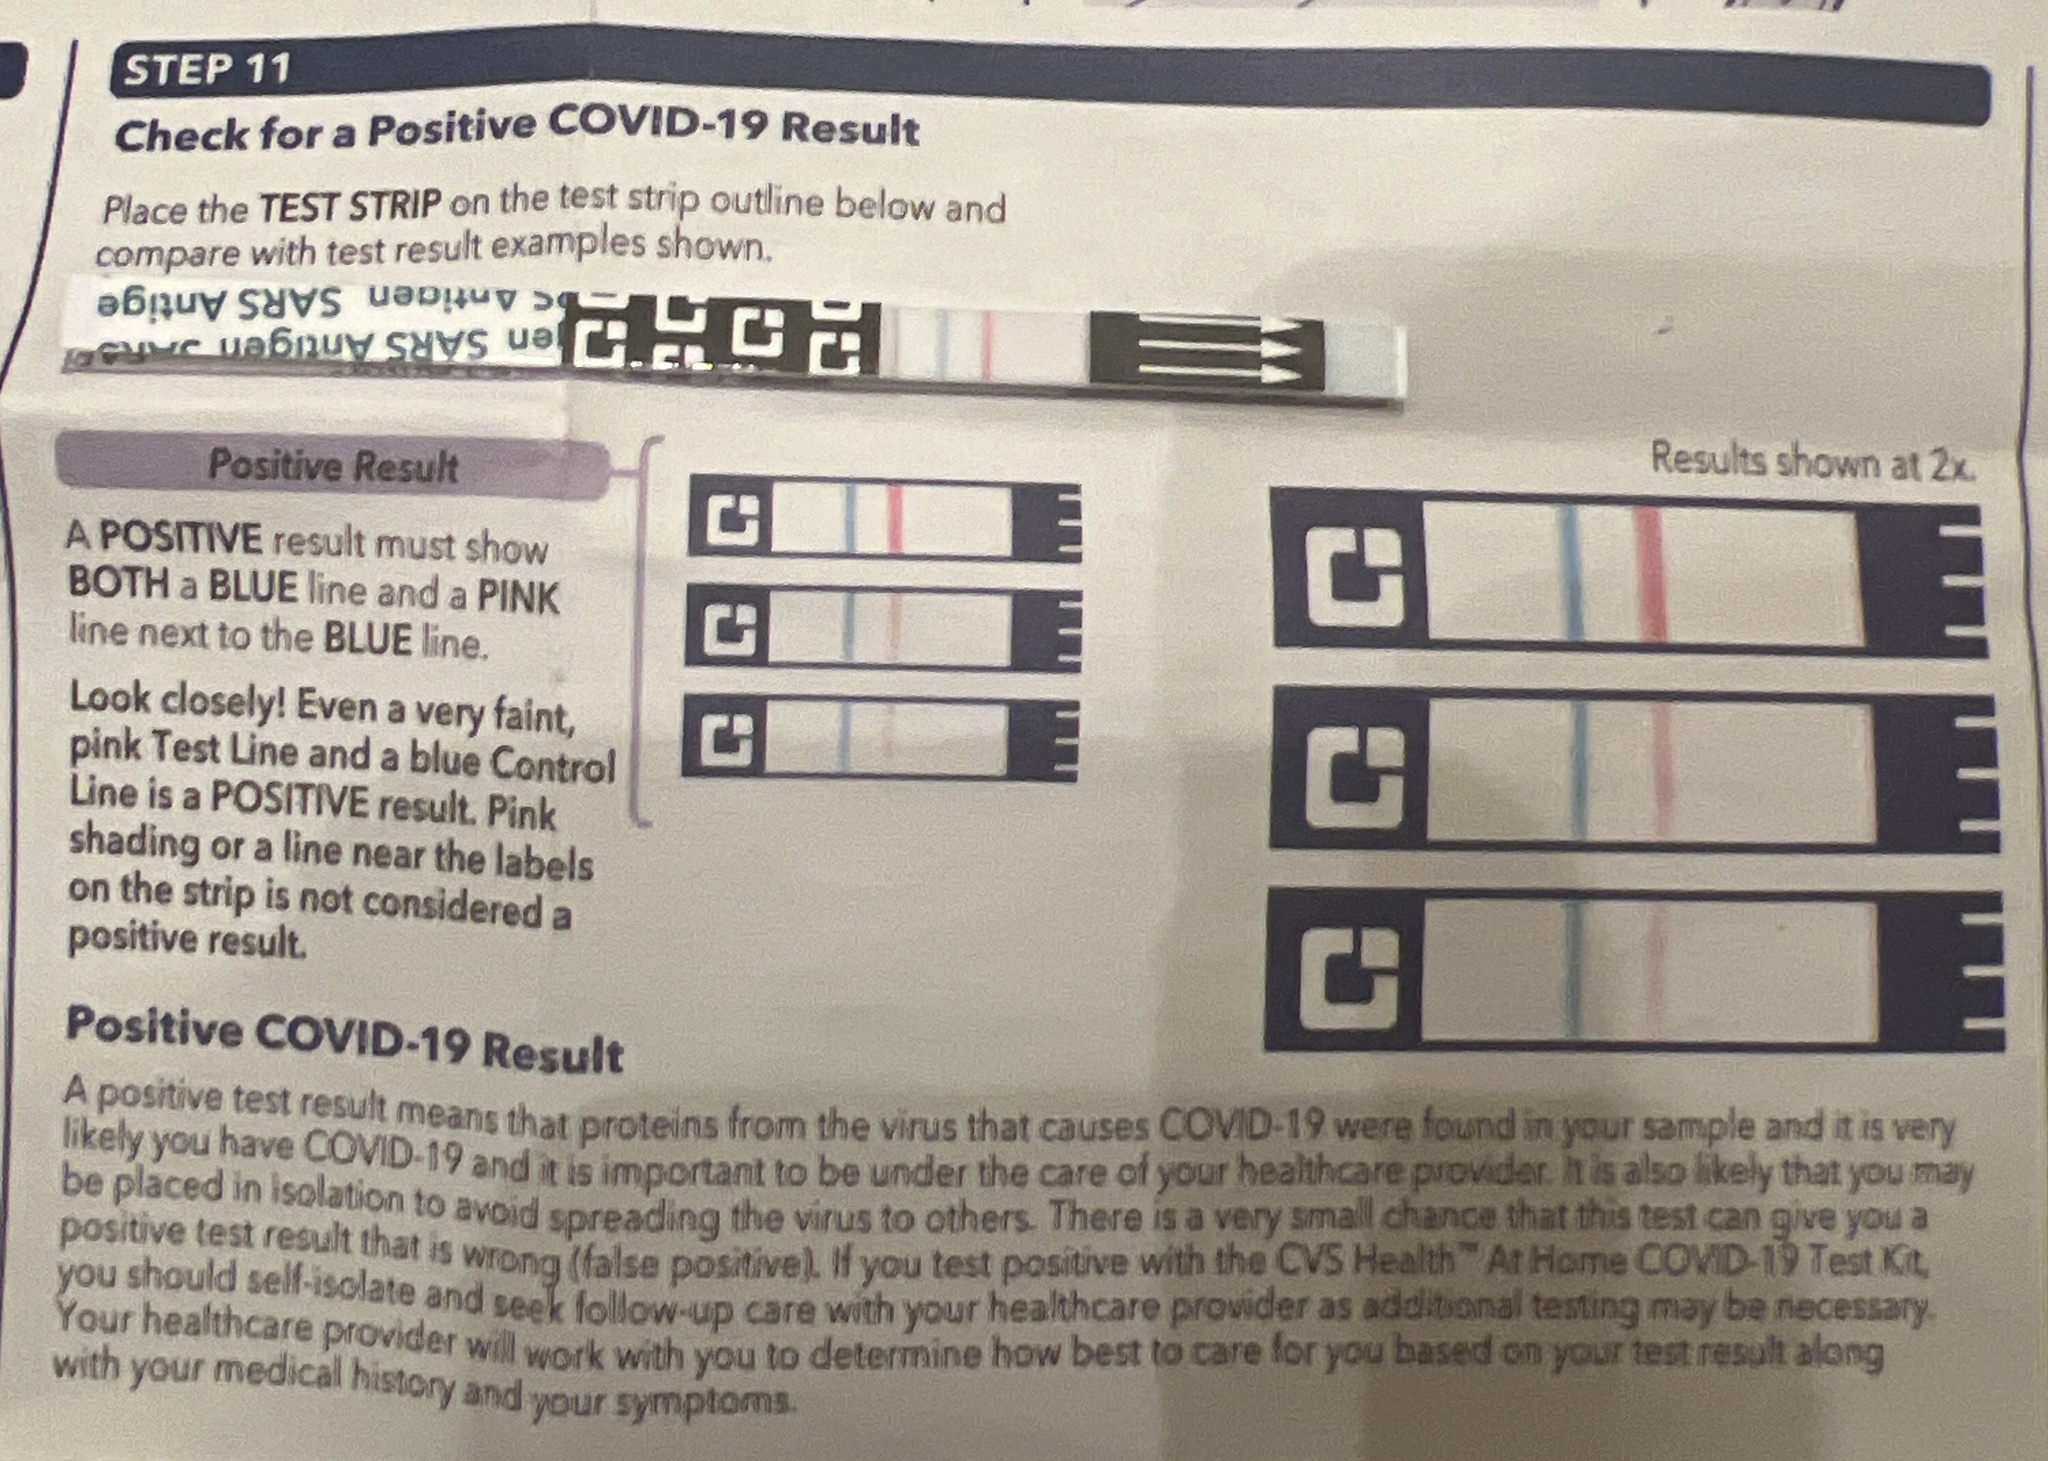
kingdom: Viruses
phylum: Pisuviricota
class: Pisoniviricetes
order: Nidovirales
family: Coronaviridae
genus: Betacoronavirus
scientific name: Betacoronavirus
